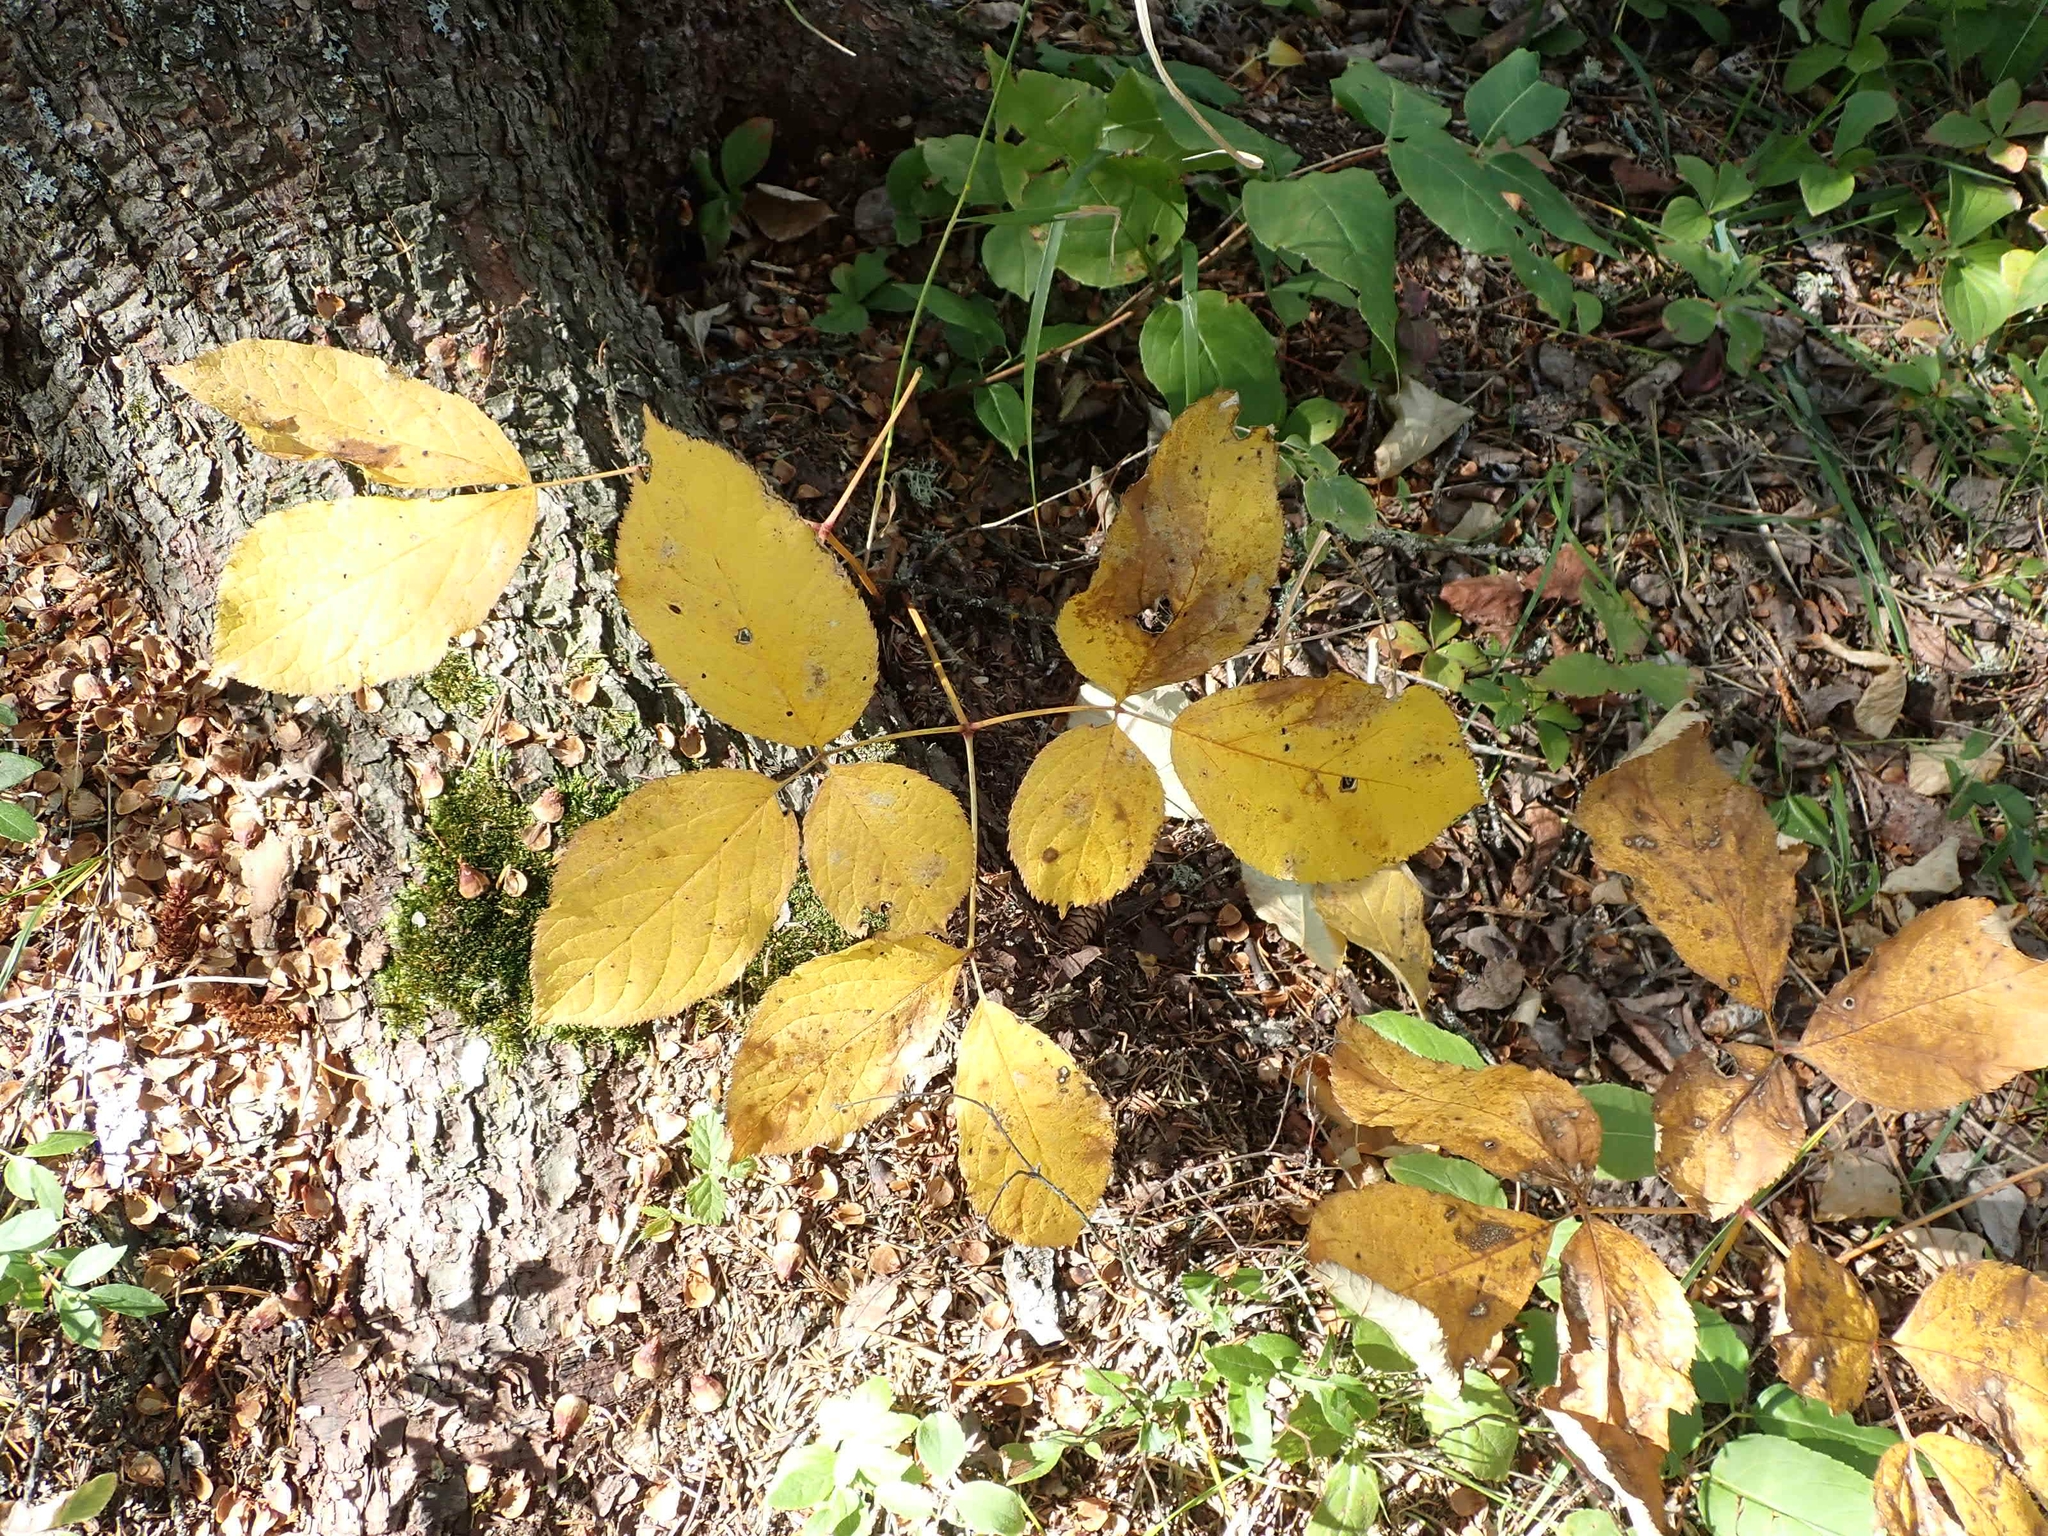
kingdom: Plantae
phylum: Tracheophyta
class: Magnoliopsida
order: Apiales
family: Araliaceae
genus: Aralia
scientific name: Aralia nudicaulis
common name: Wild sarsaparilla
